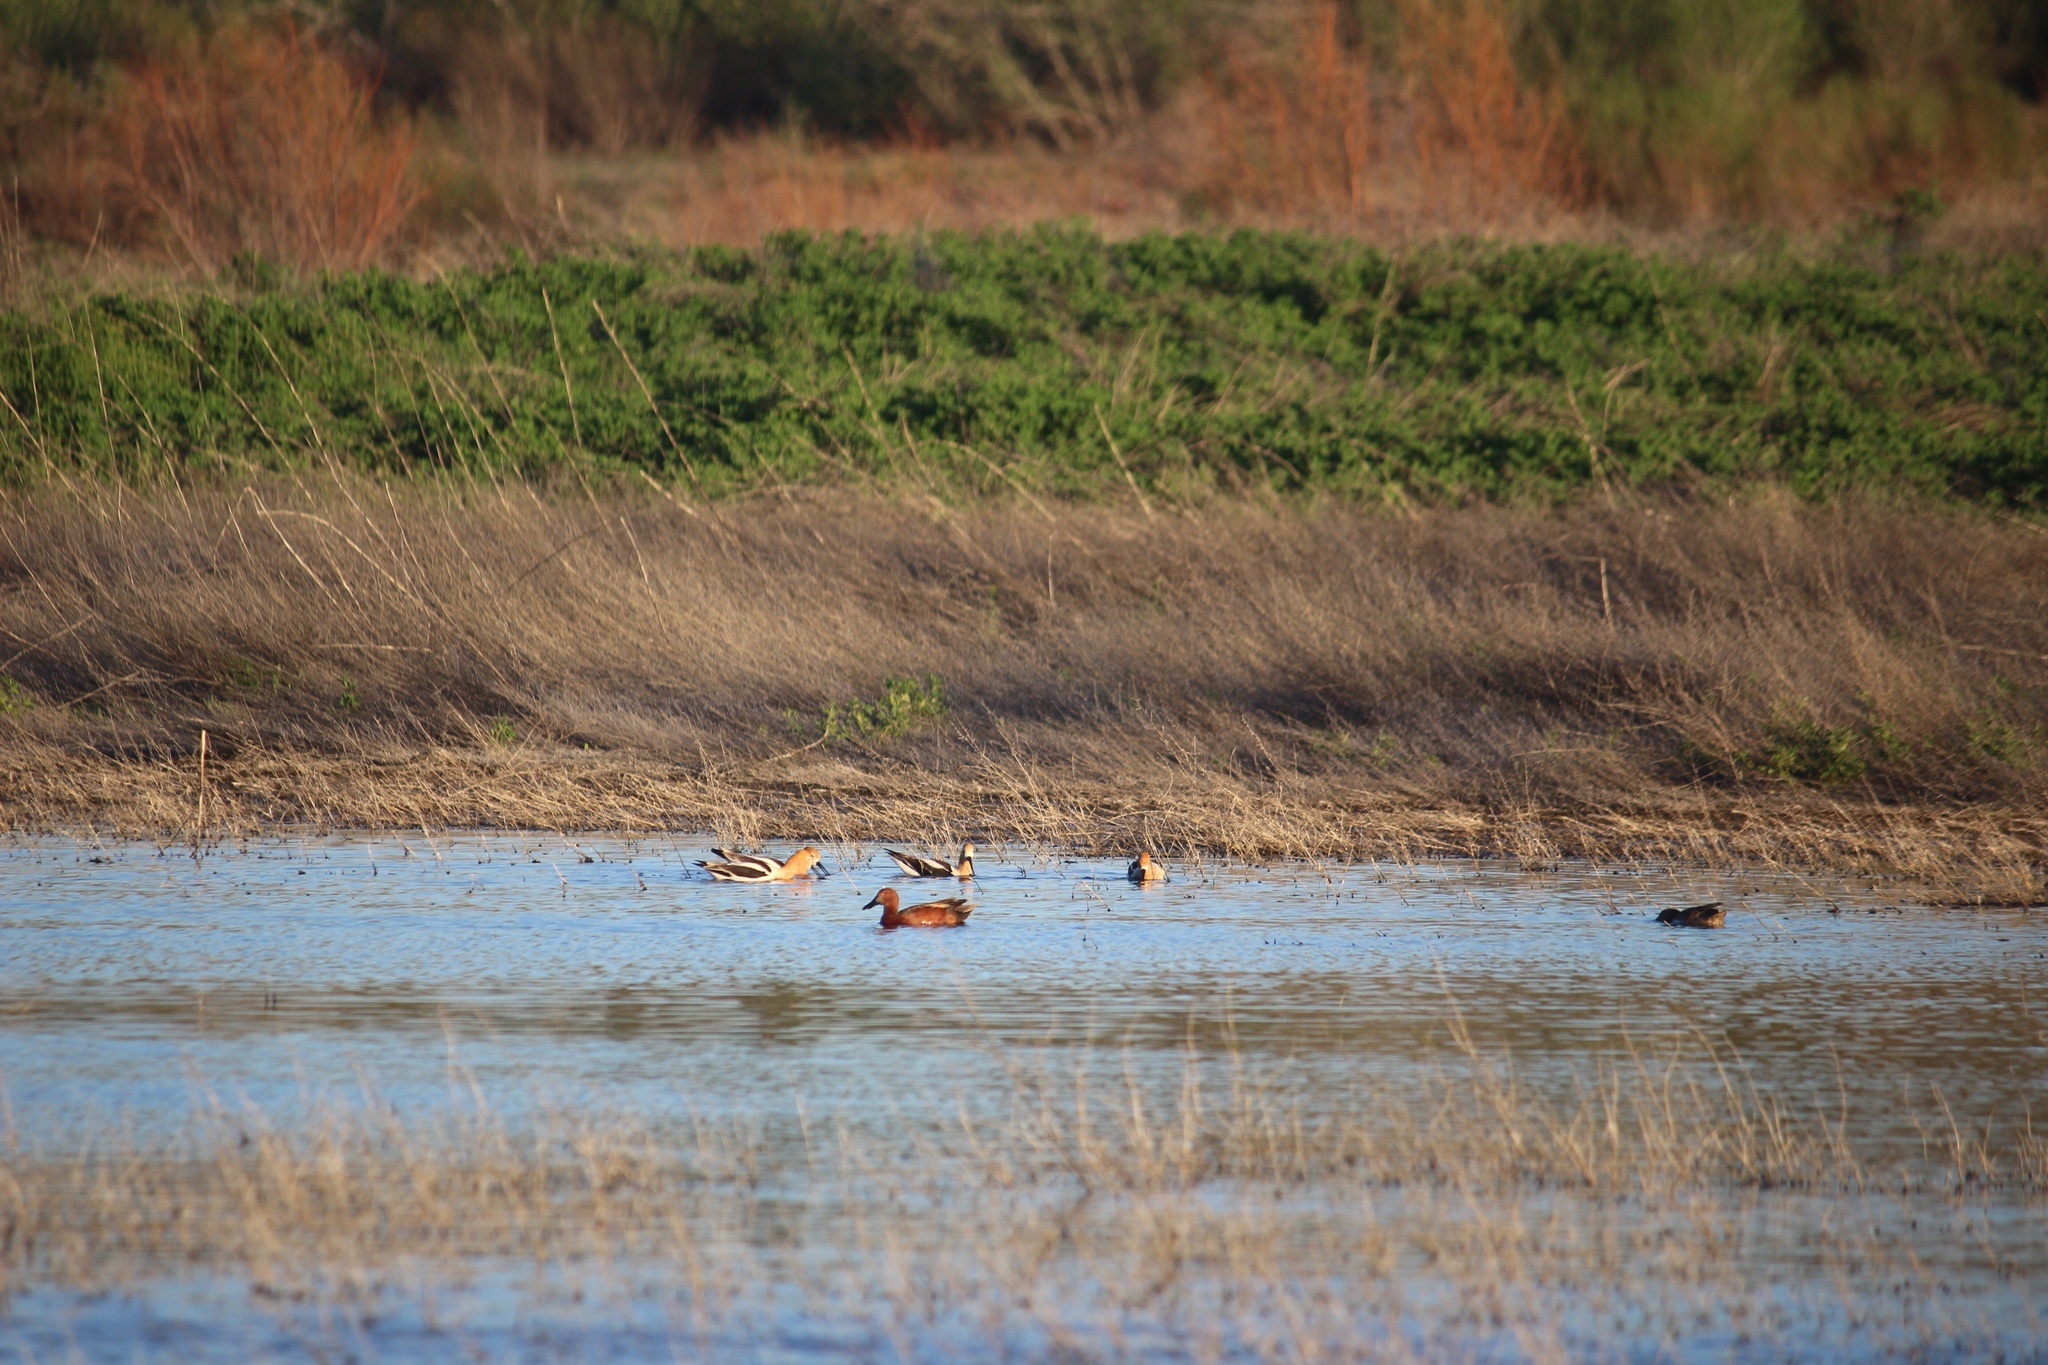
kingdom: Animalia
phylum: Chordata
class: Aves
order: Anseriformes
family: Anatidae
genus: Spatula
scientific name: Spatula cyanoptera
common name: Cinnamon teal
